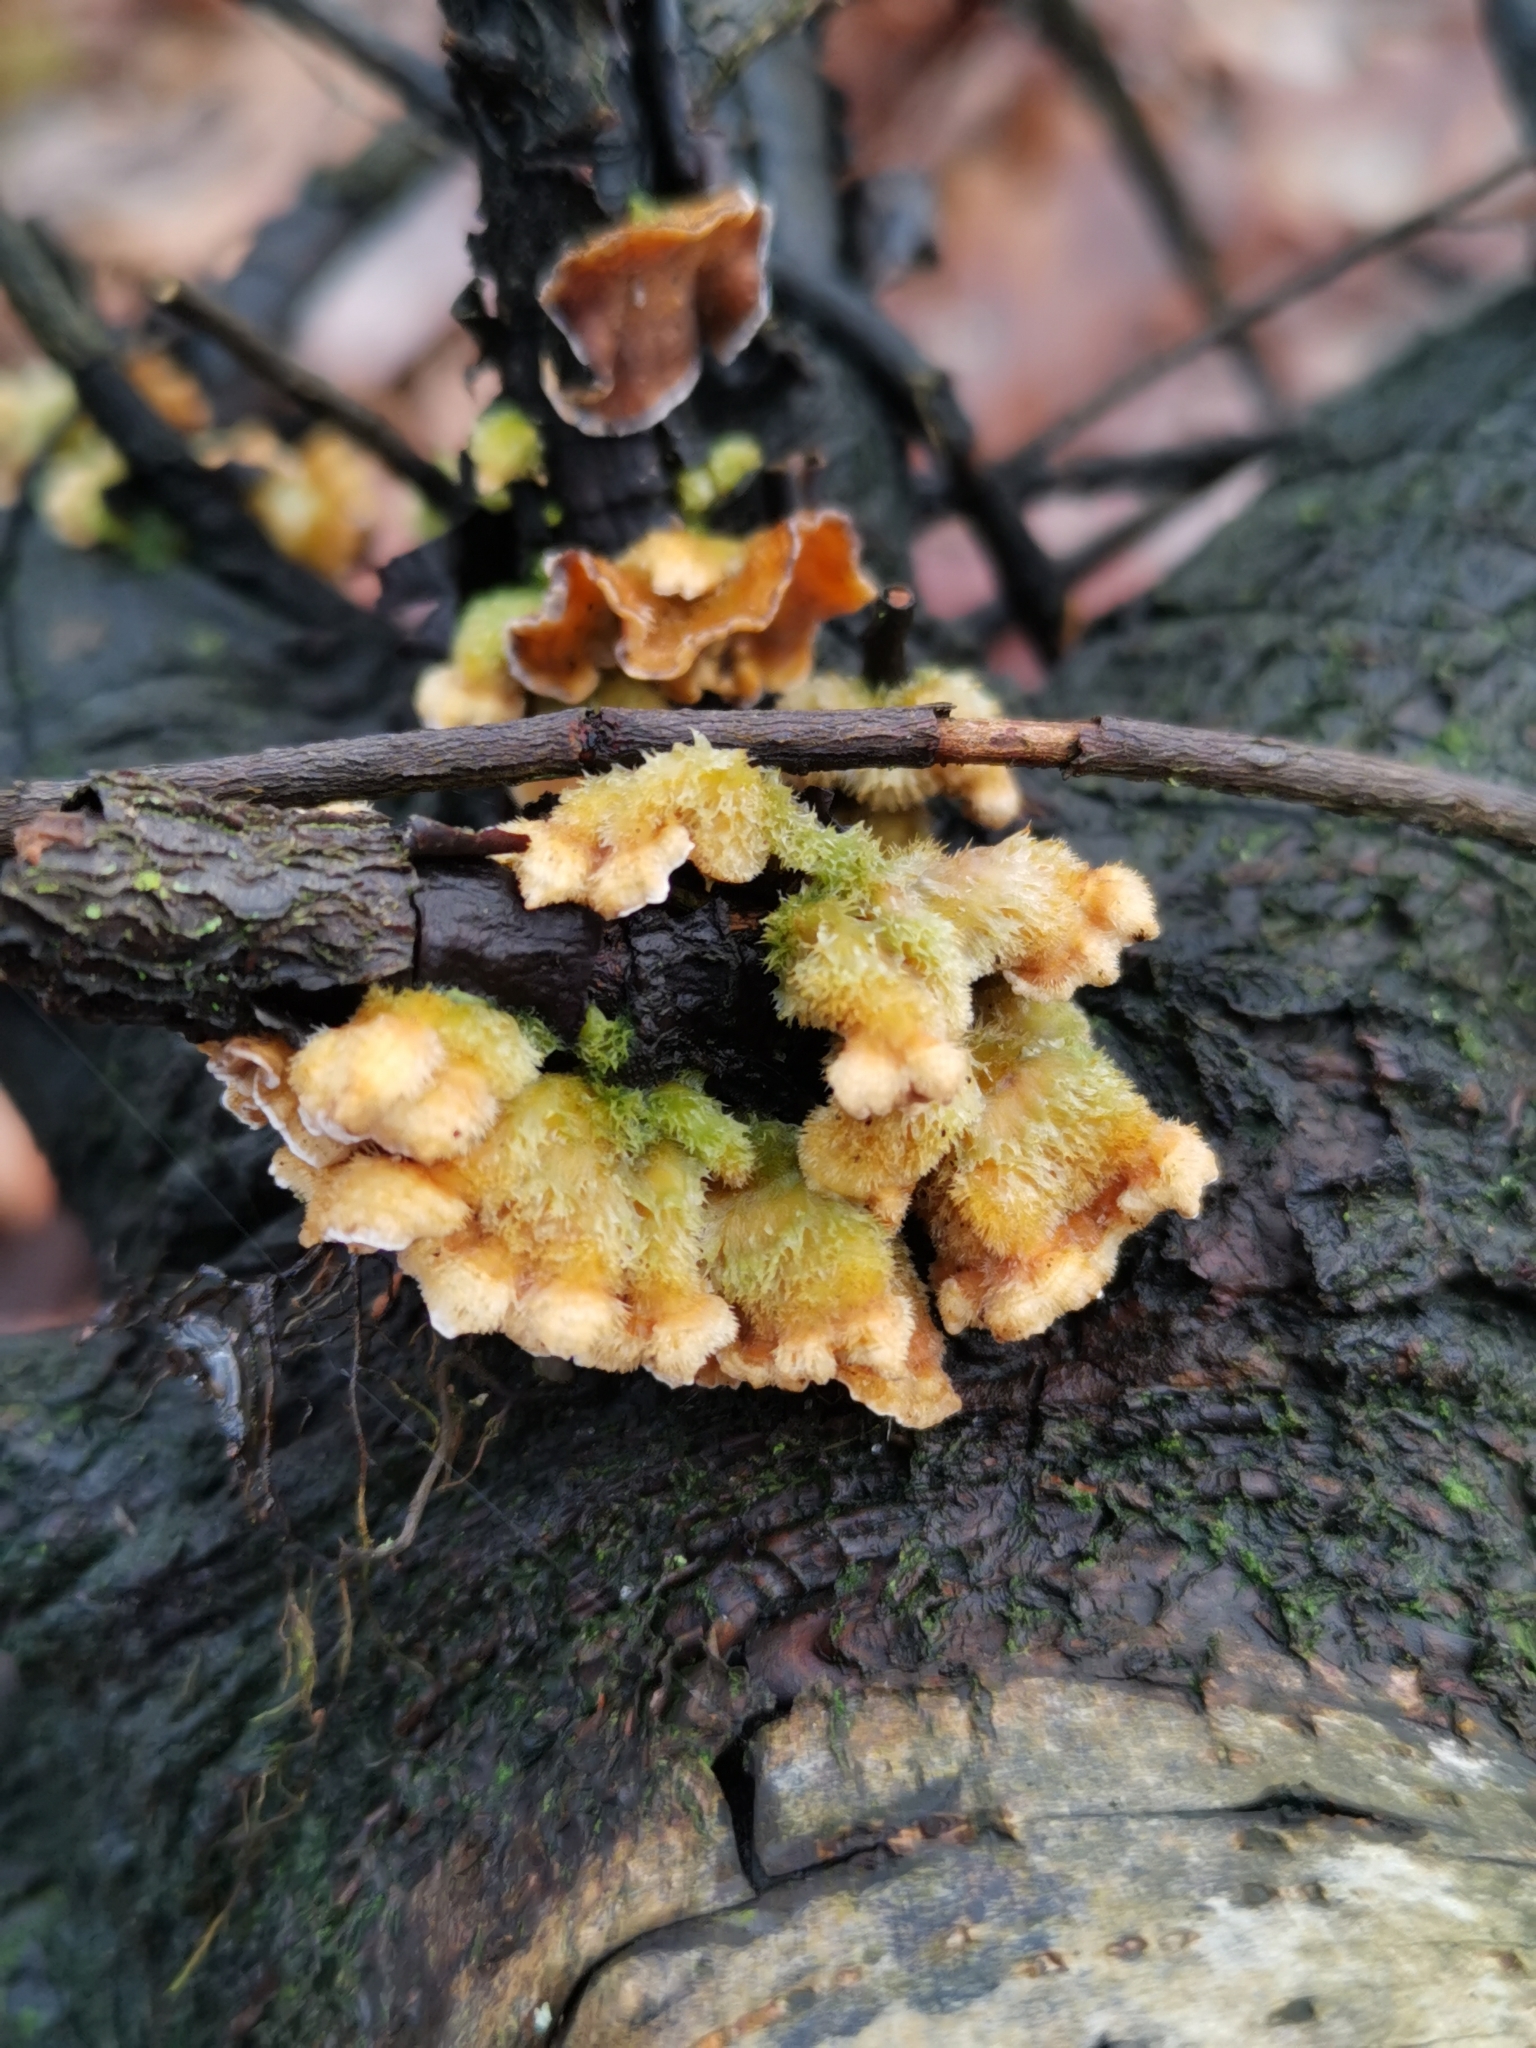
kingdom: Fungi
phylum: Basidiomycota
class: Agaricomycetes
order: Russulales
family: Stereaceae
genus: Stereum
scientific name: Stereum hirsutum
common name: Hairy curtain crust
